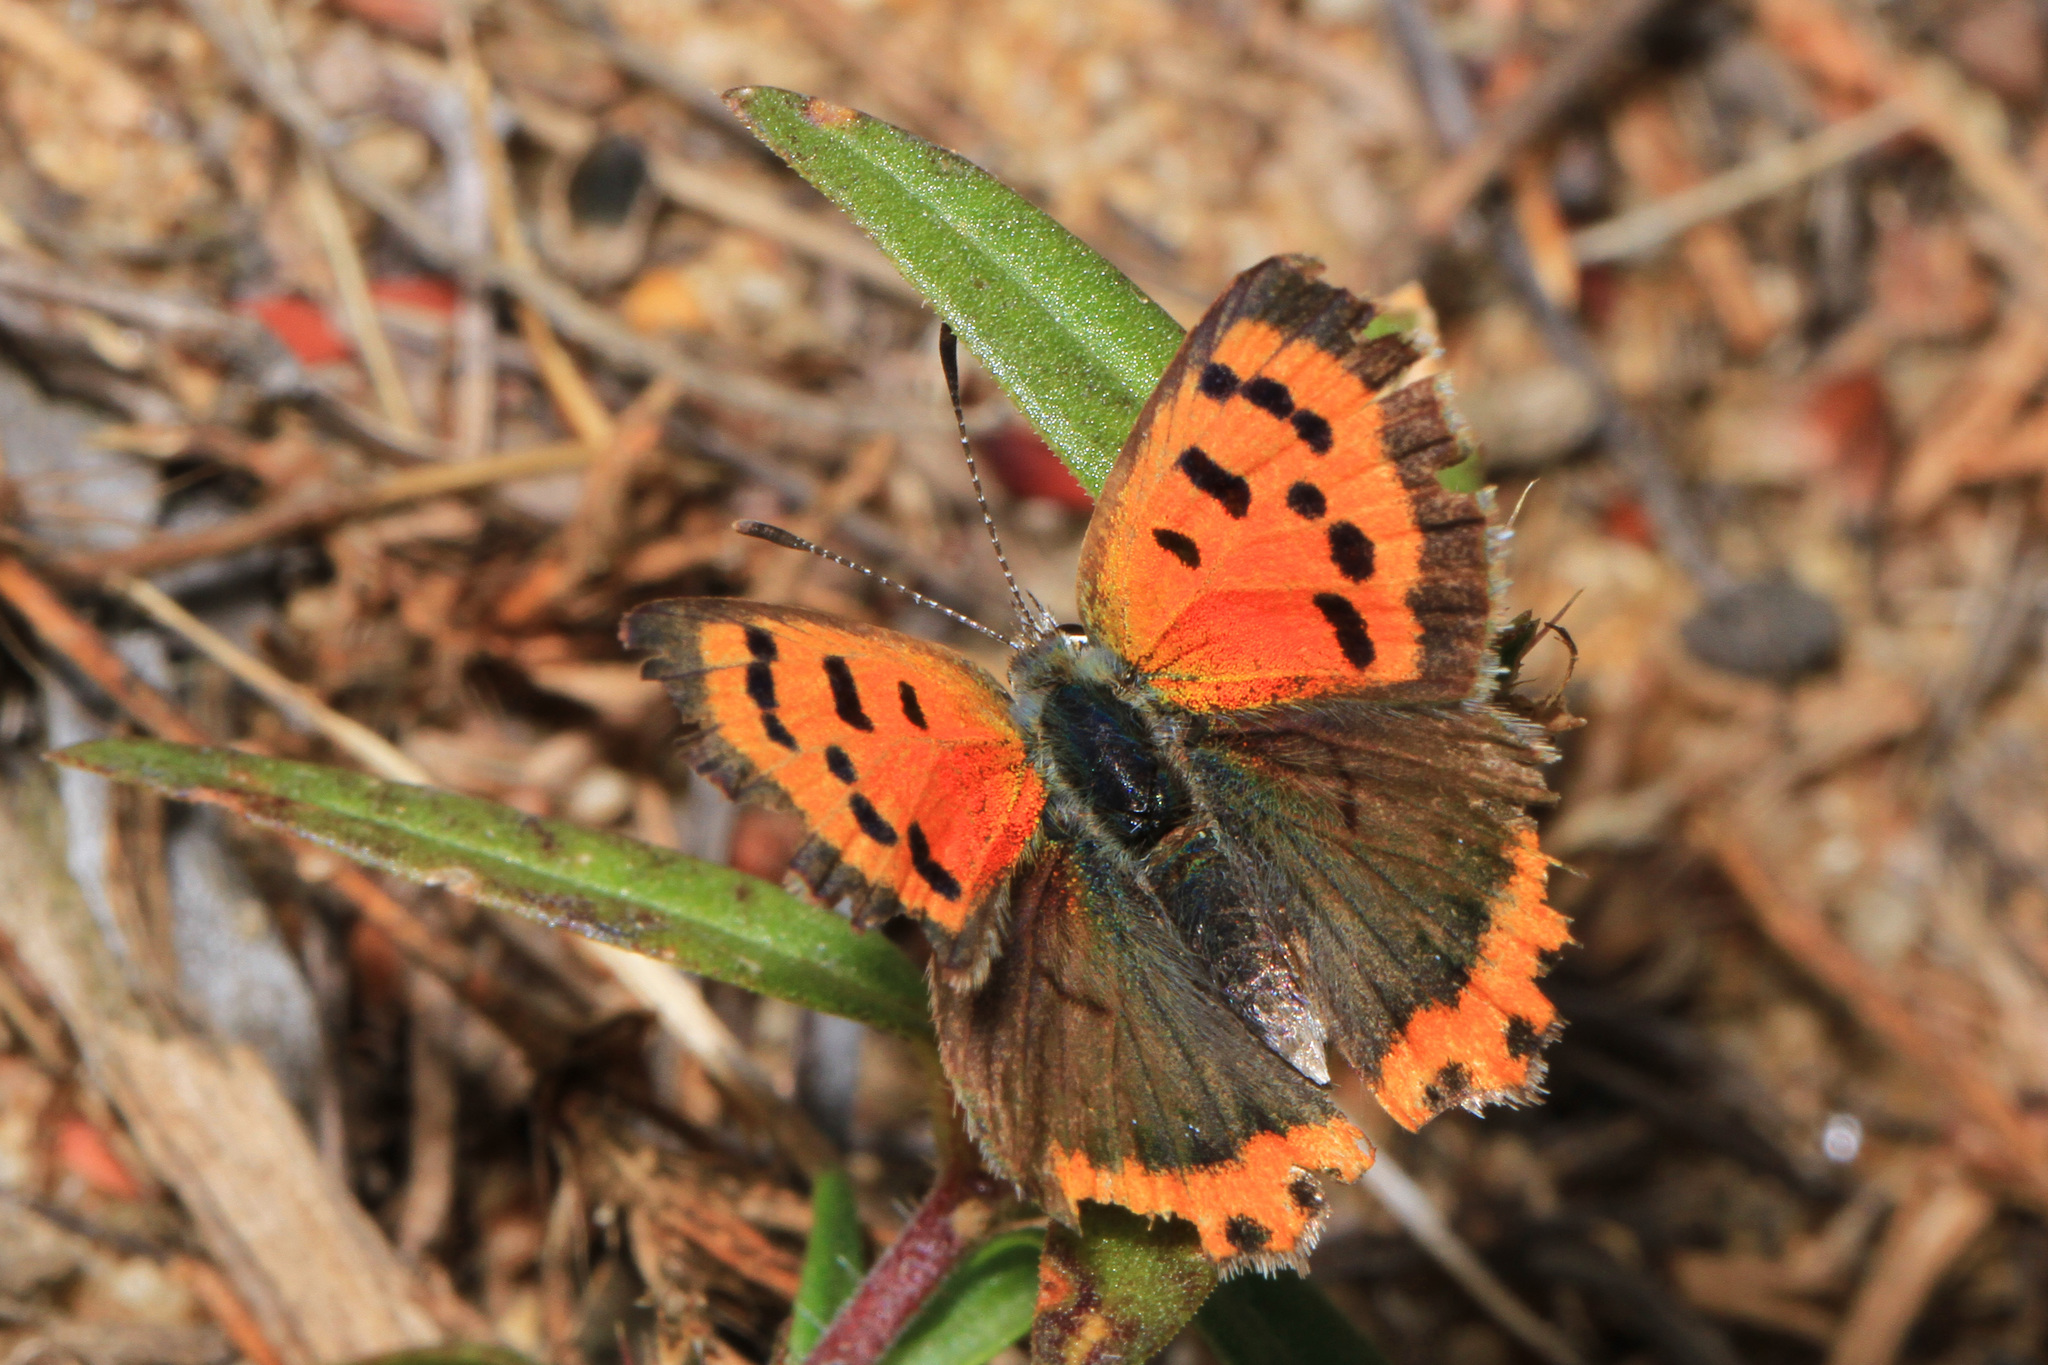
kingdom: Animalia
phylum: Arthropoda
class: Insecta
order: Lepidoptera
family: Lycaenidae
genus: Lycaena
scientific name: Lycaena hypophlaeas
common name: American copper
